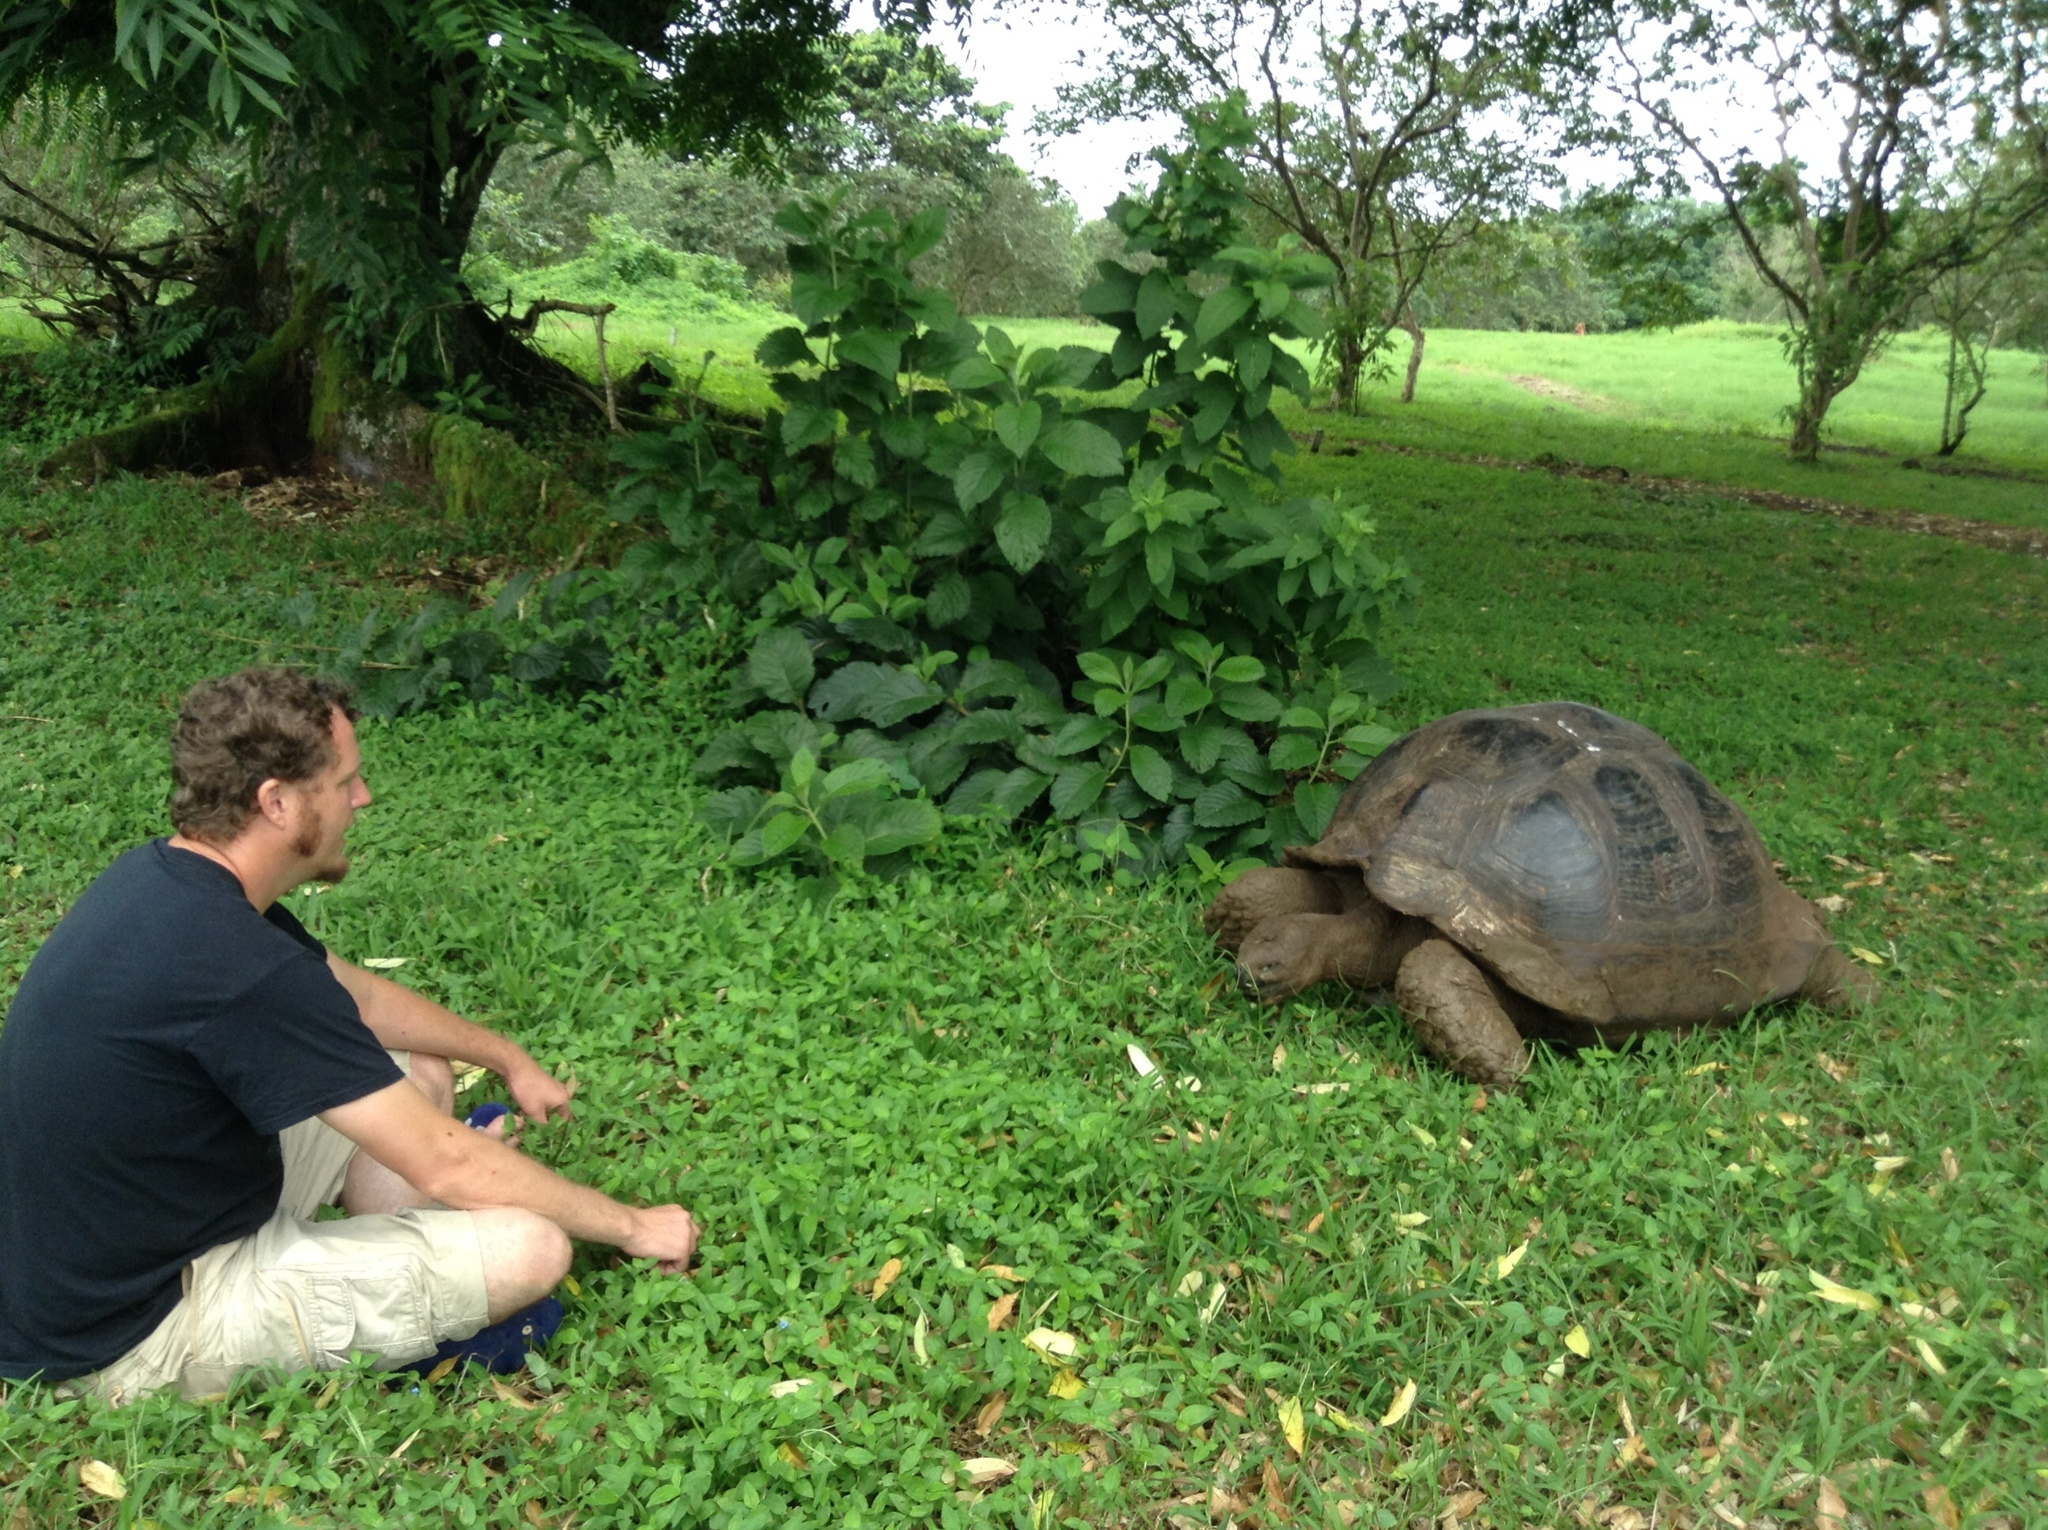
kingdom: Animalia
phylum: Chordata
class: Testudines
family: Testudinidae
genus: Chelonoidis
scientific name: Chelonoidis niger
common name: Charles island giant tortoise
